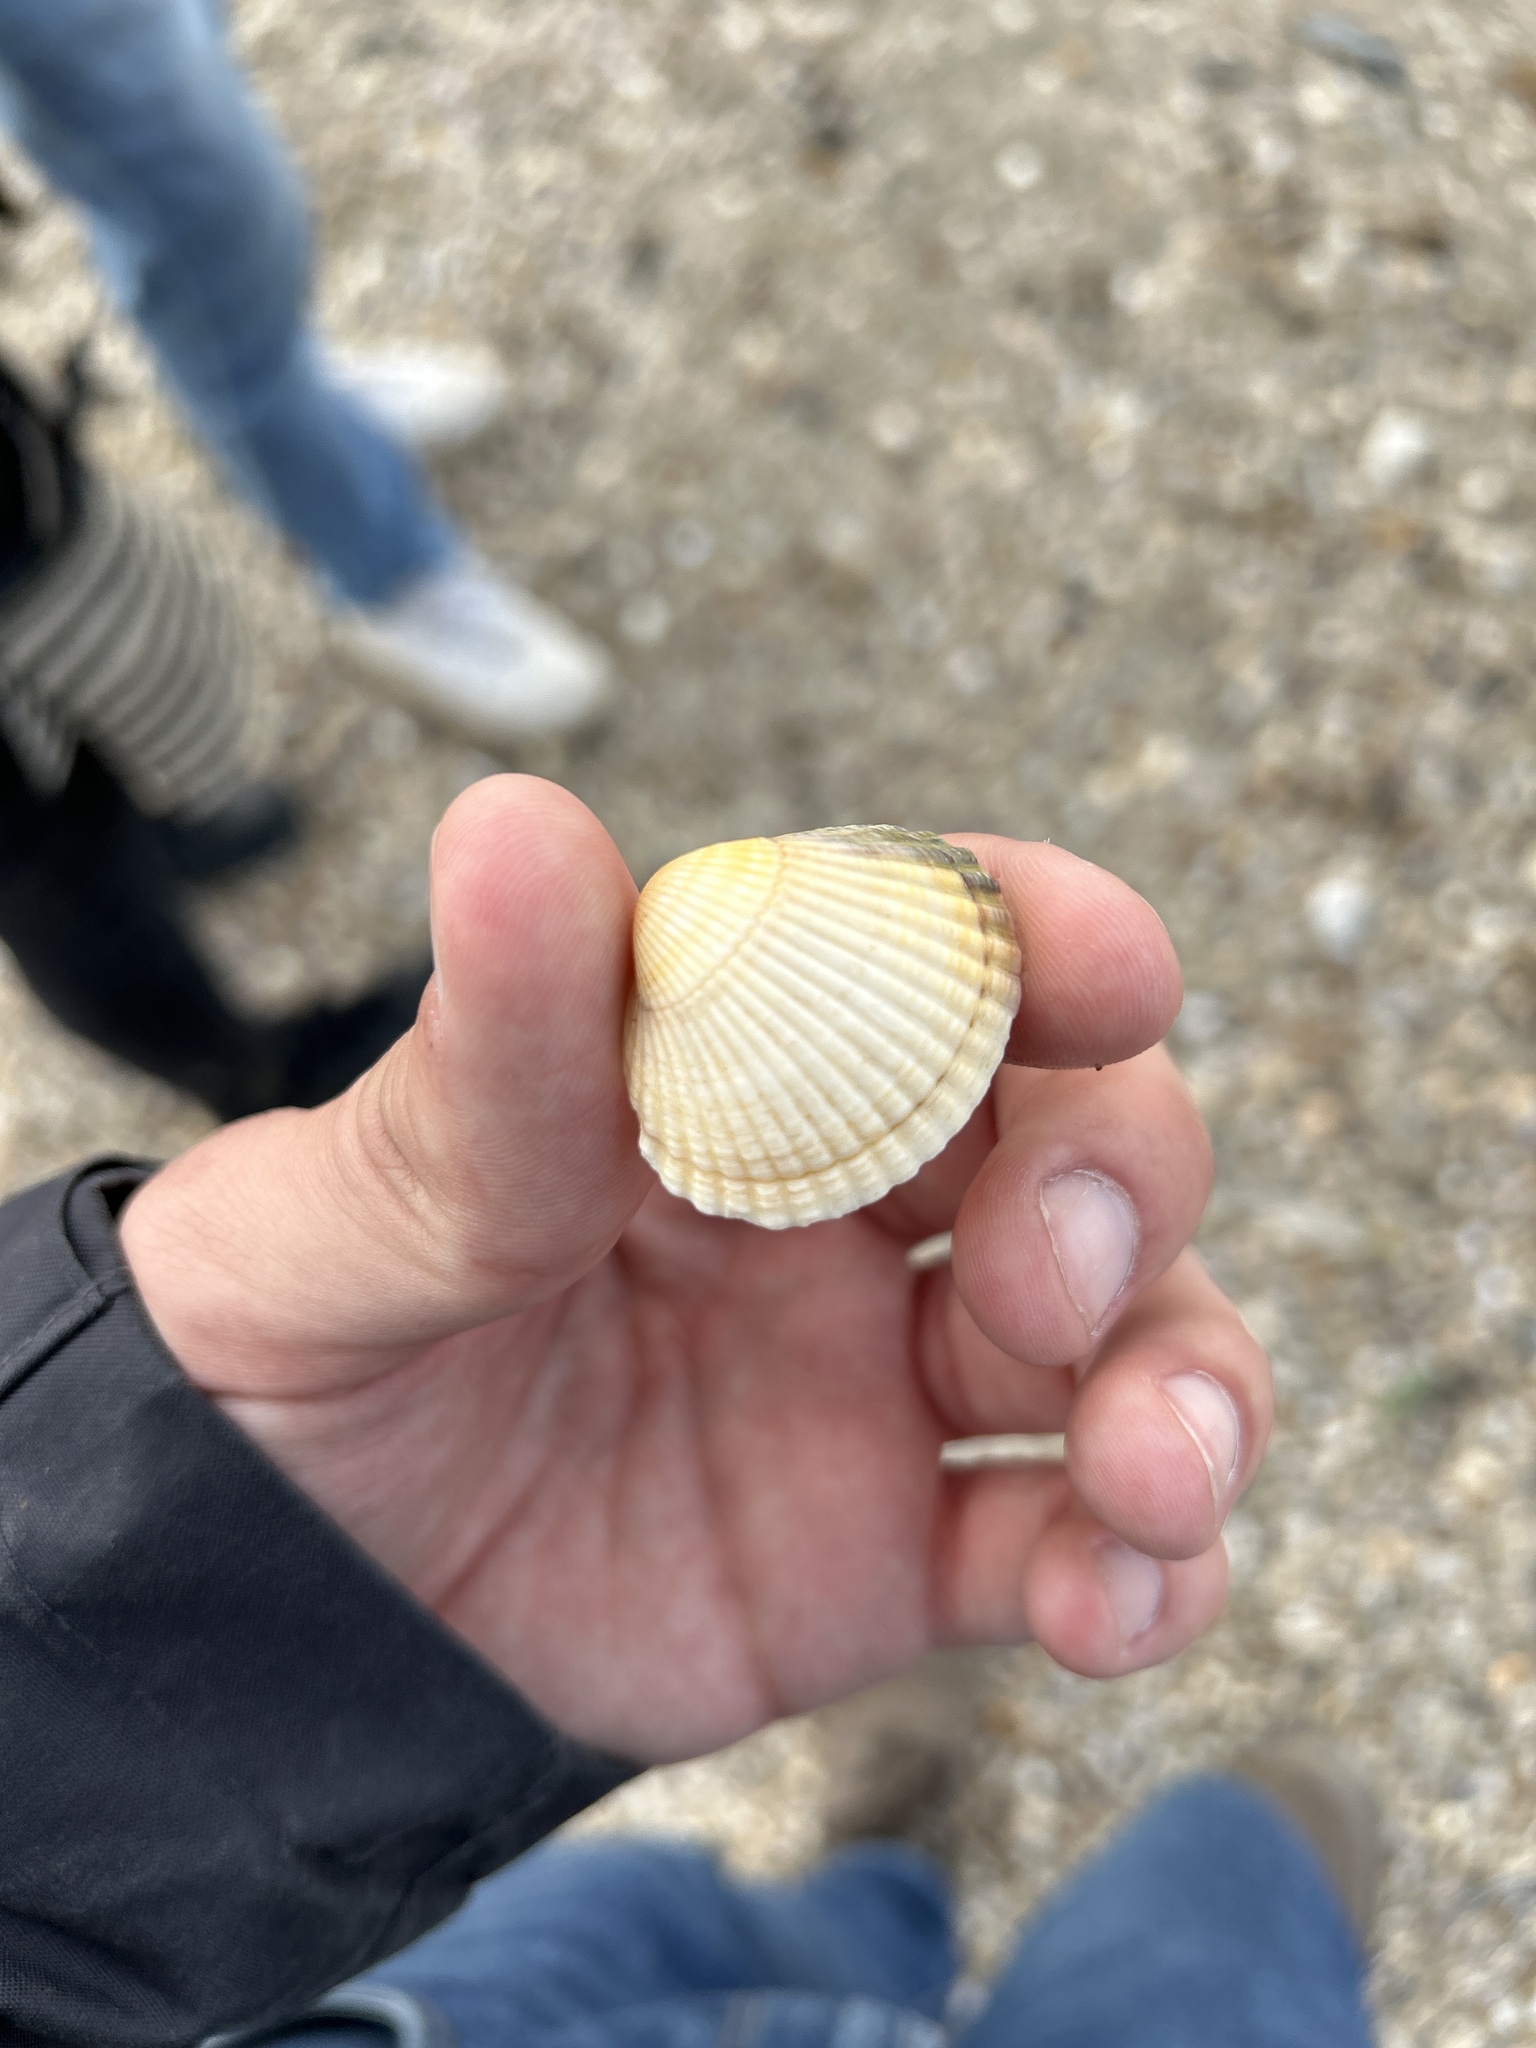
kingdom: Animalia
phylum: Mollusca
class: Bivalvia
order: Cardiida
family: Cardiidae
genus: Cerastoderma
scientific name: Cerastoderma edule
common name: Common cockle
